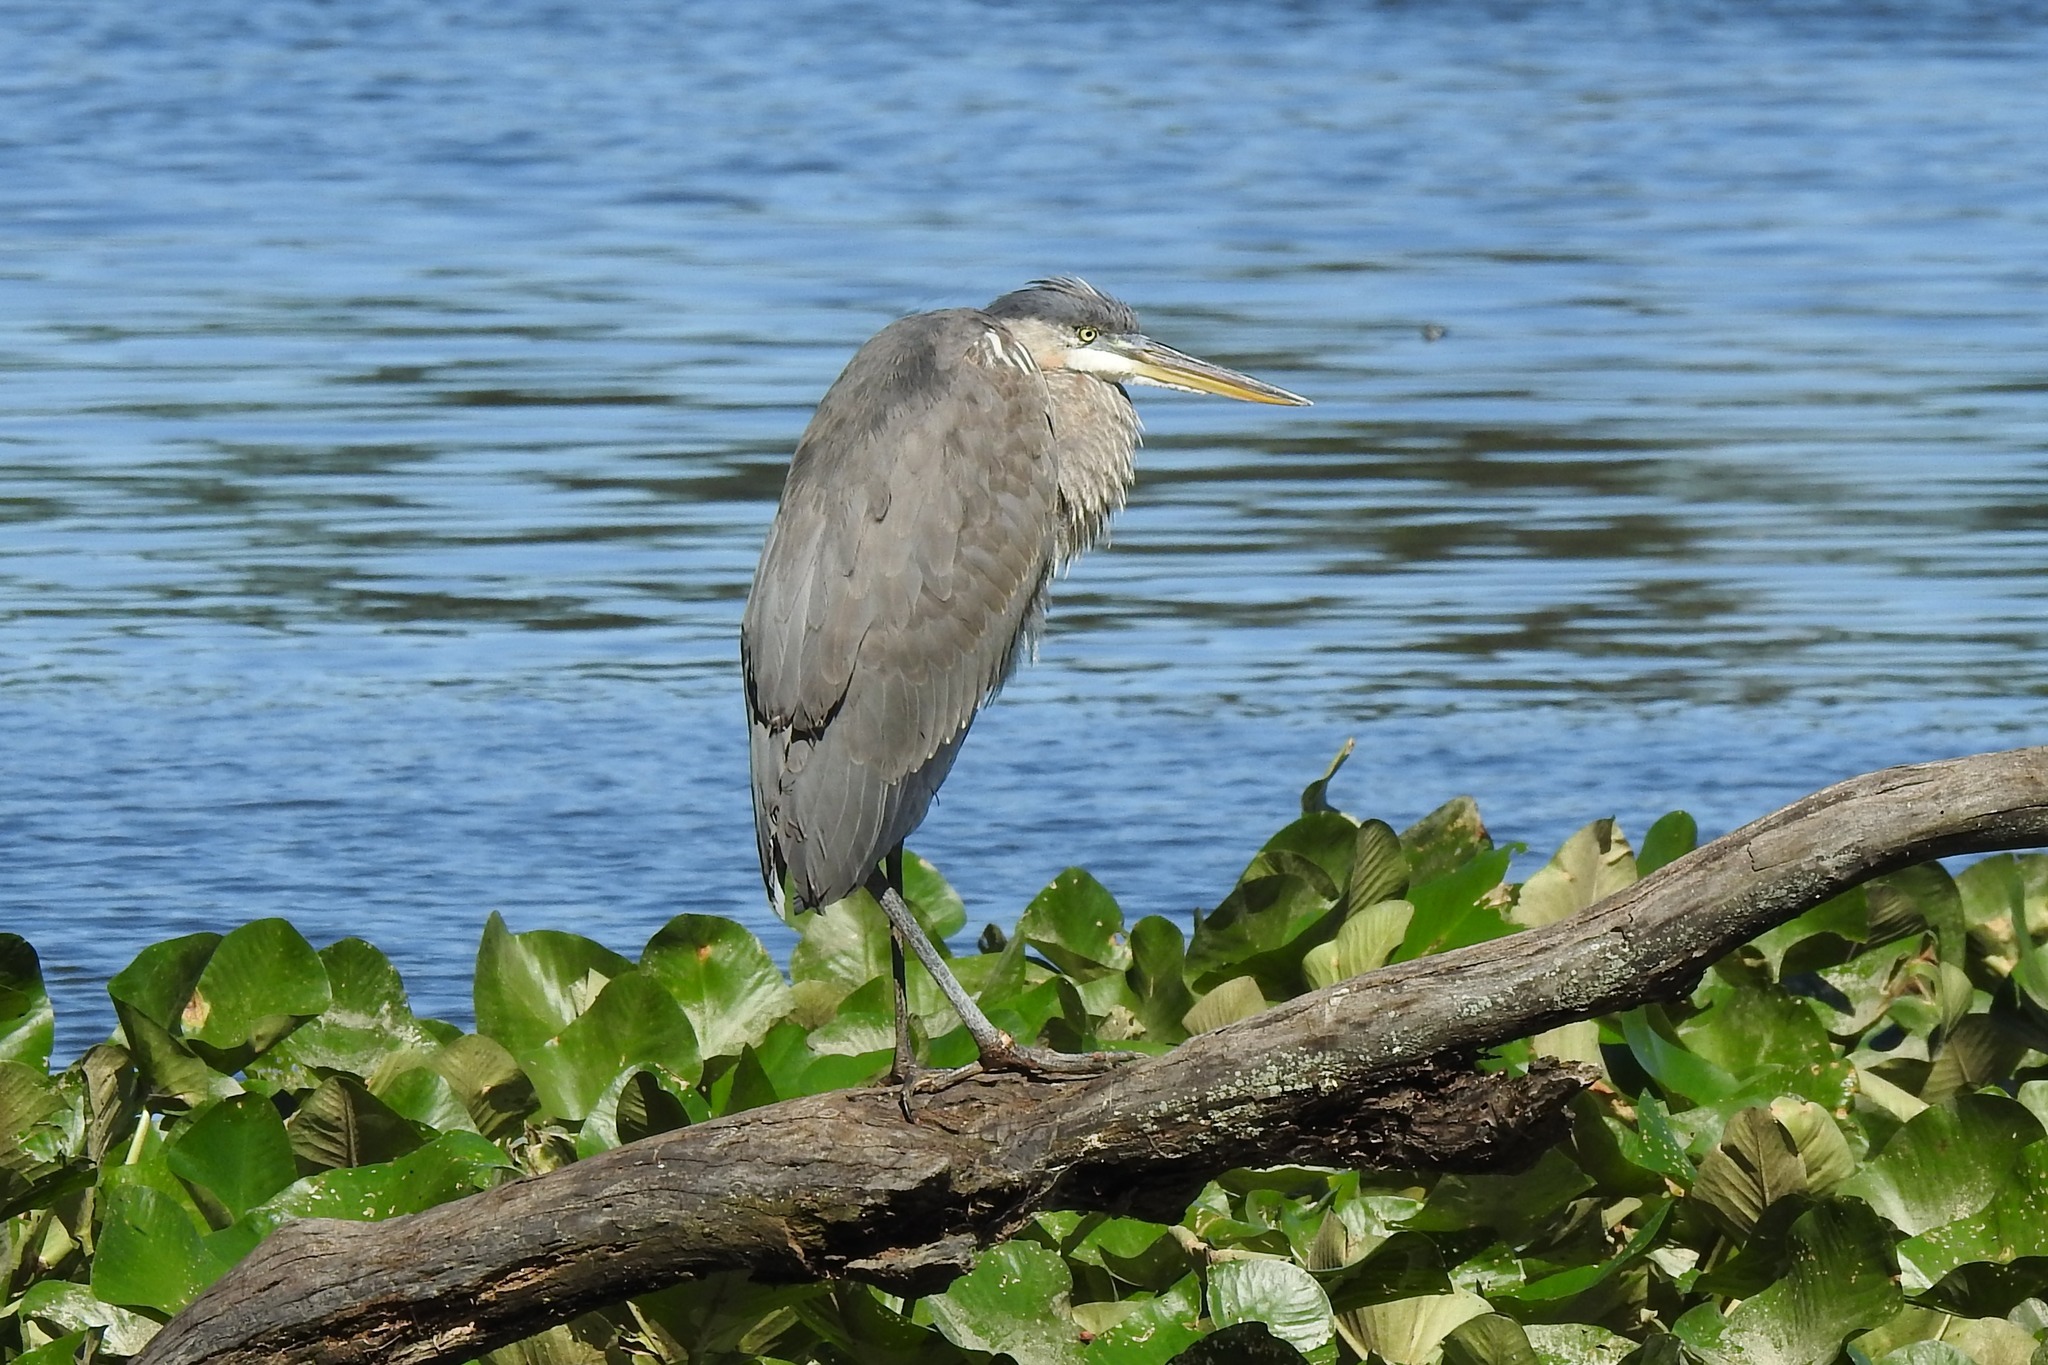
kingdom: Animalia
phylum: Chordata
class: Aves
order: Pelecaniformes
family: Ardeidae
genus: Ardea
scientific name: Ardea herodias
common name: Great blue heron
